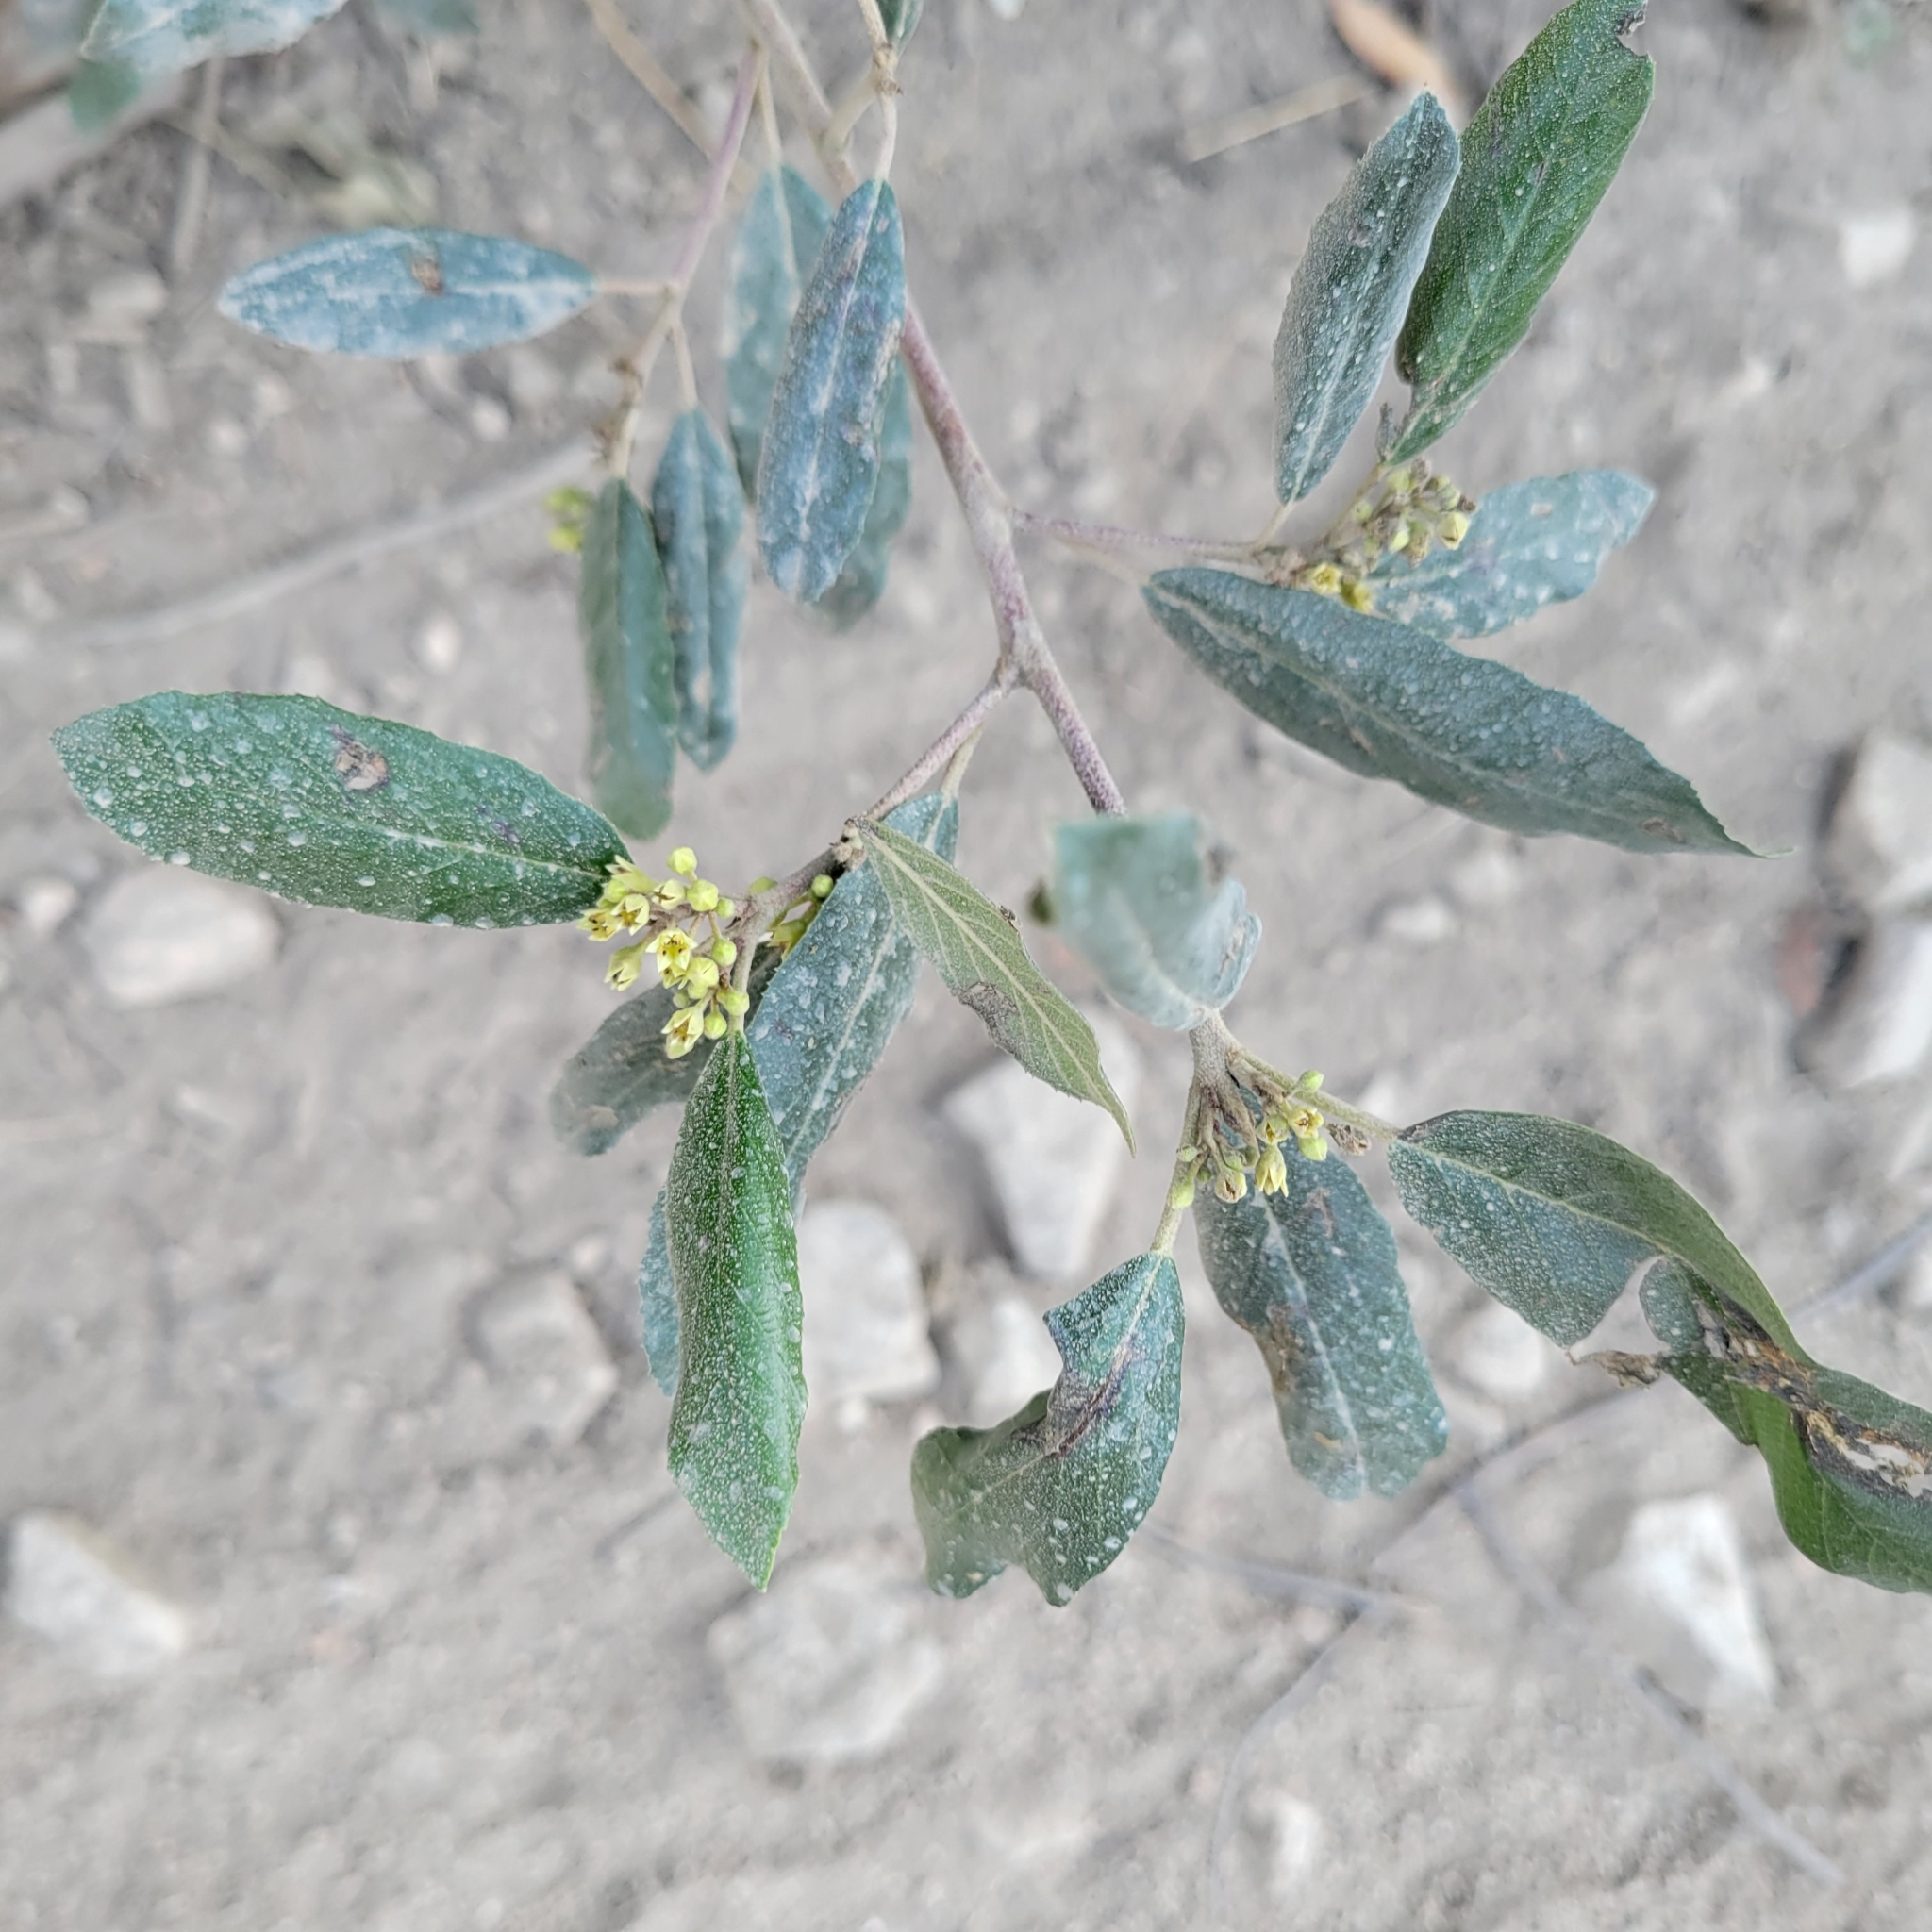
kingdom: Plantae
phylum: Tracheophyta
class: Magnoliopsida
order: Rosales
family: Rhamnaceae
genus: Frangula
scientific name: Frangula californica
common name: California buckthorn
